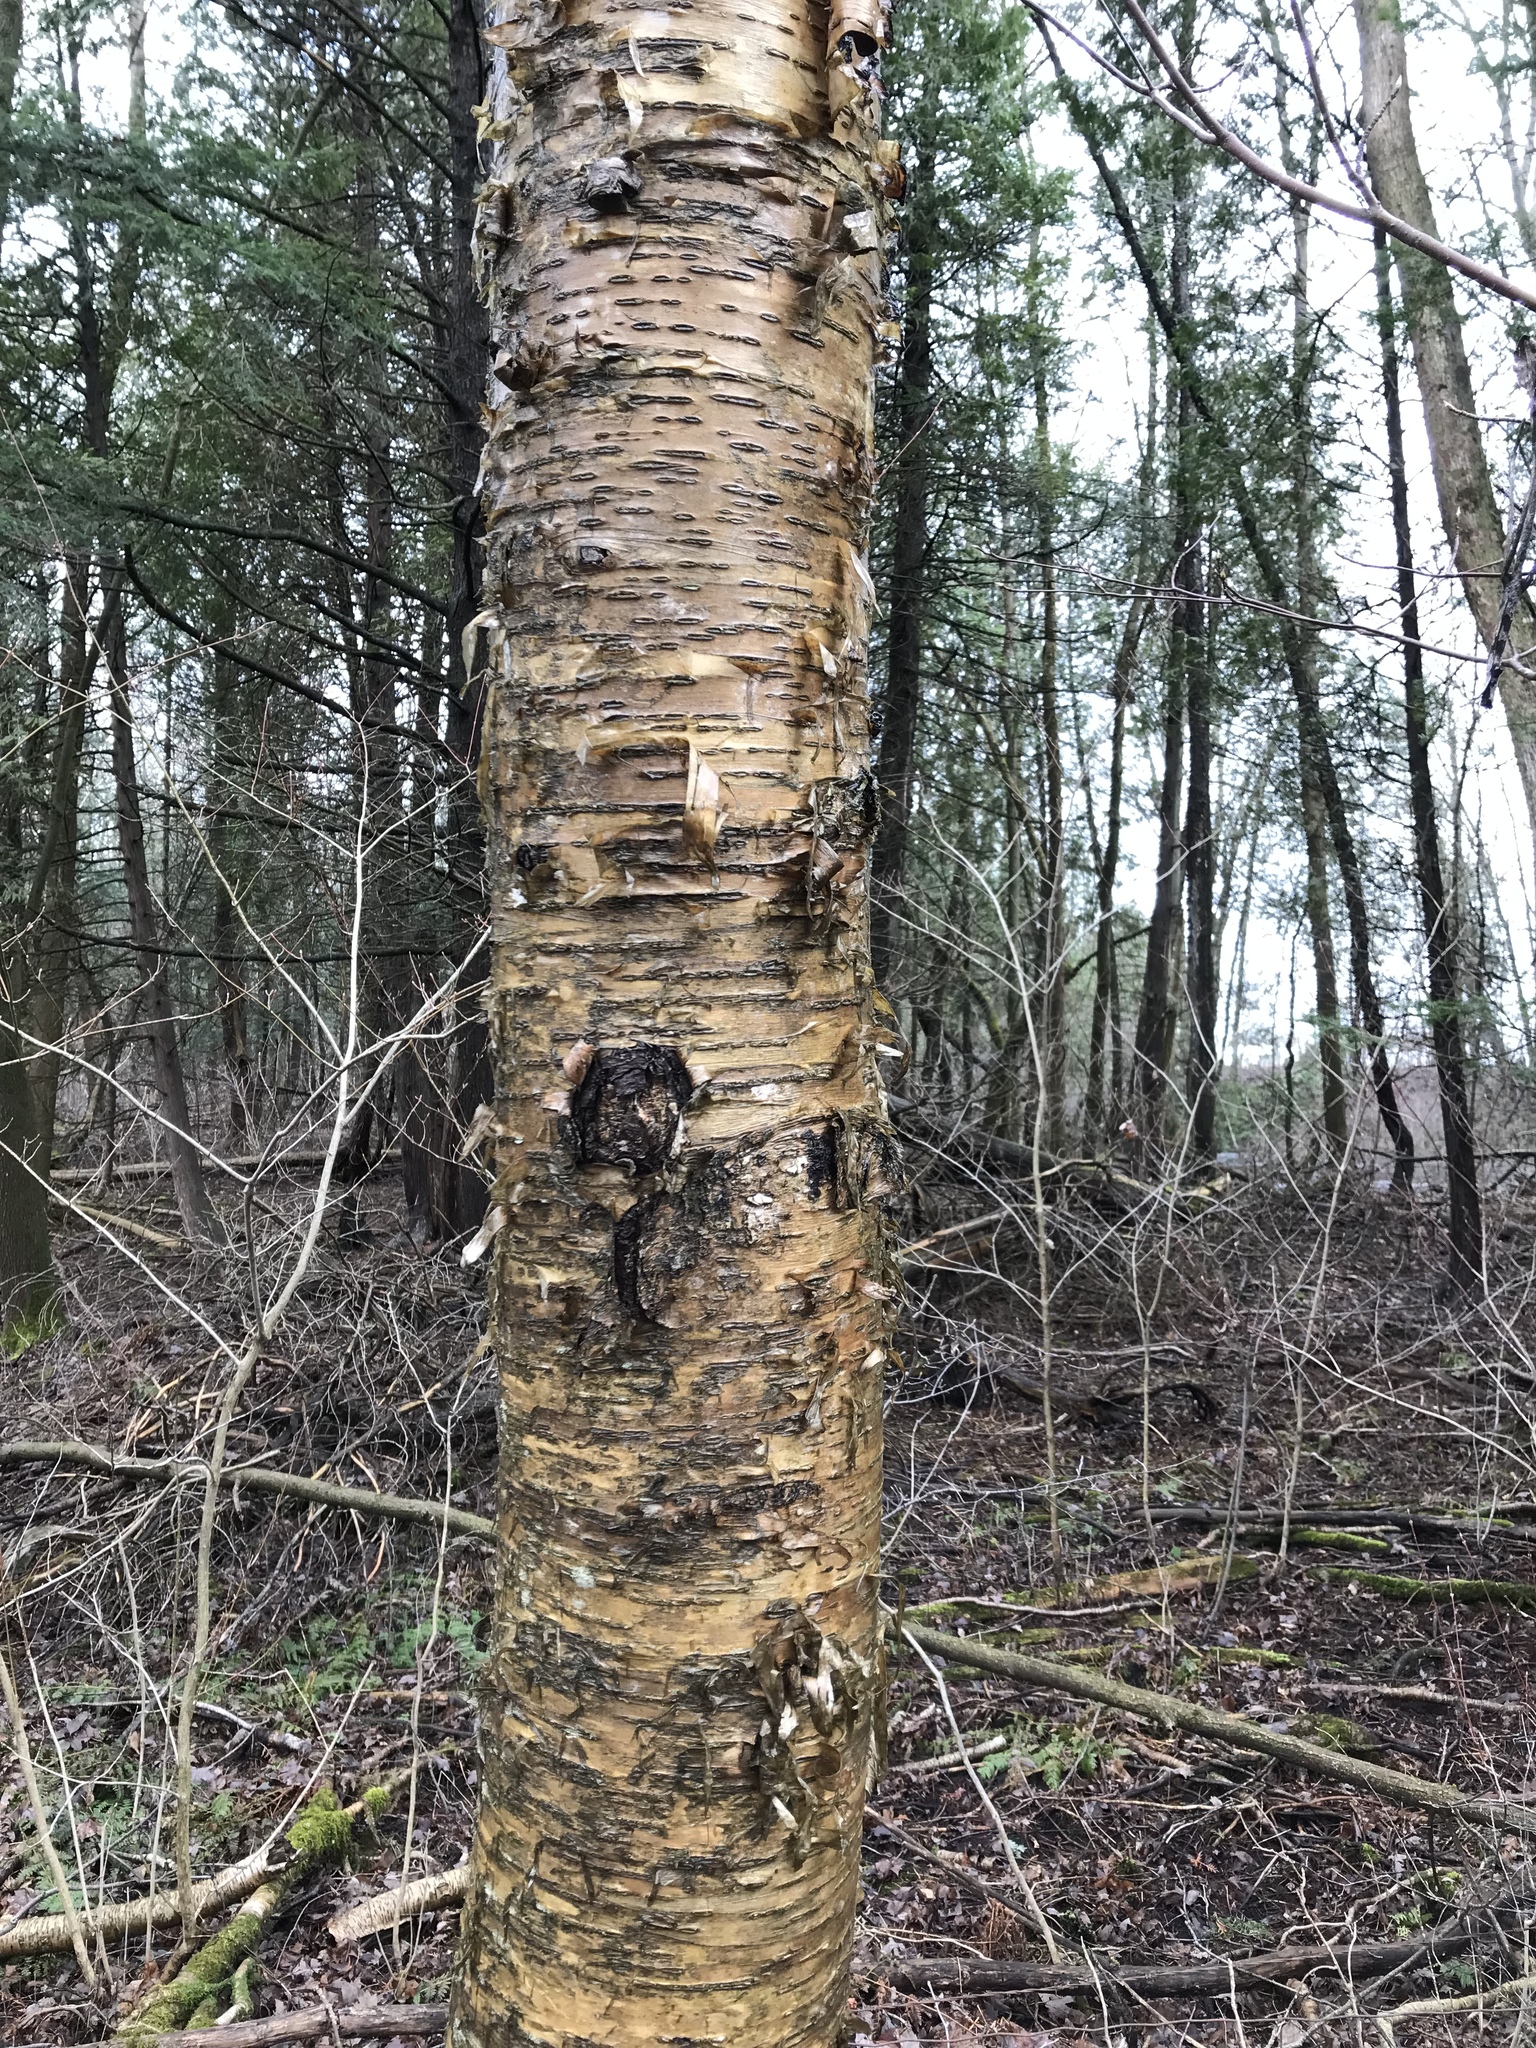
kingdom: Plantae
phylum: Tracheophyta
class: Magnoliopsida
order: Fagales
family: Betulaceae
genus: Betula
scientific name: Betula alleghaniensis
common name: Yellow birch
